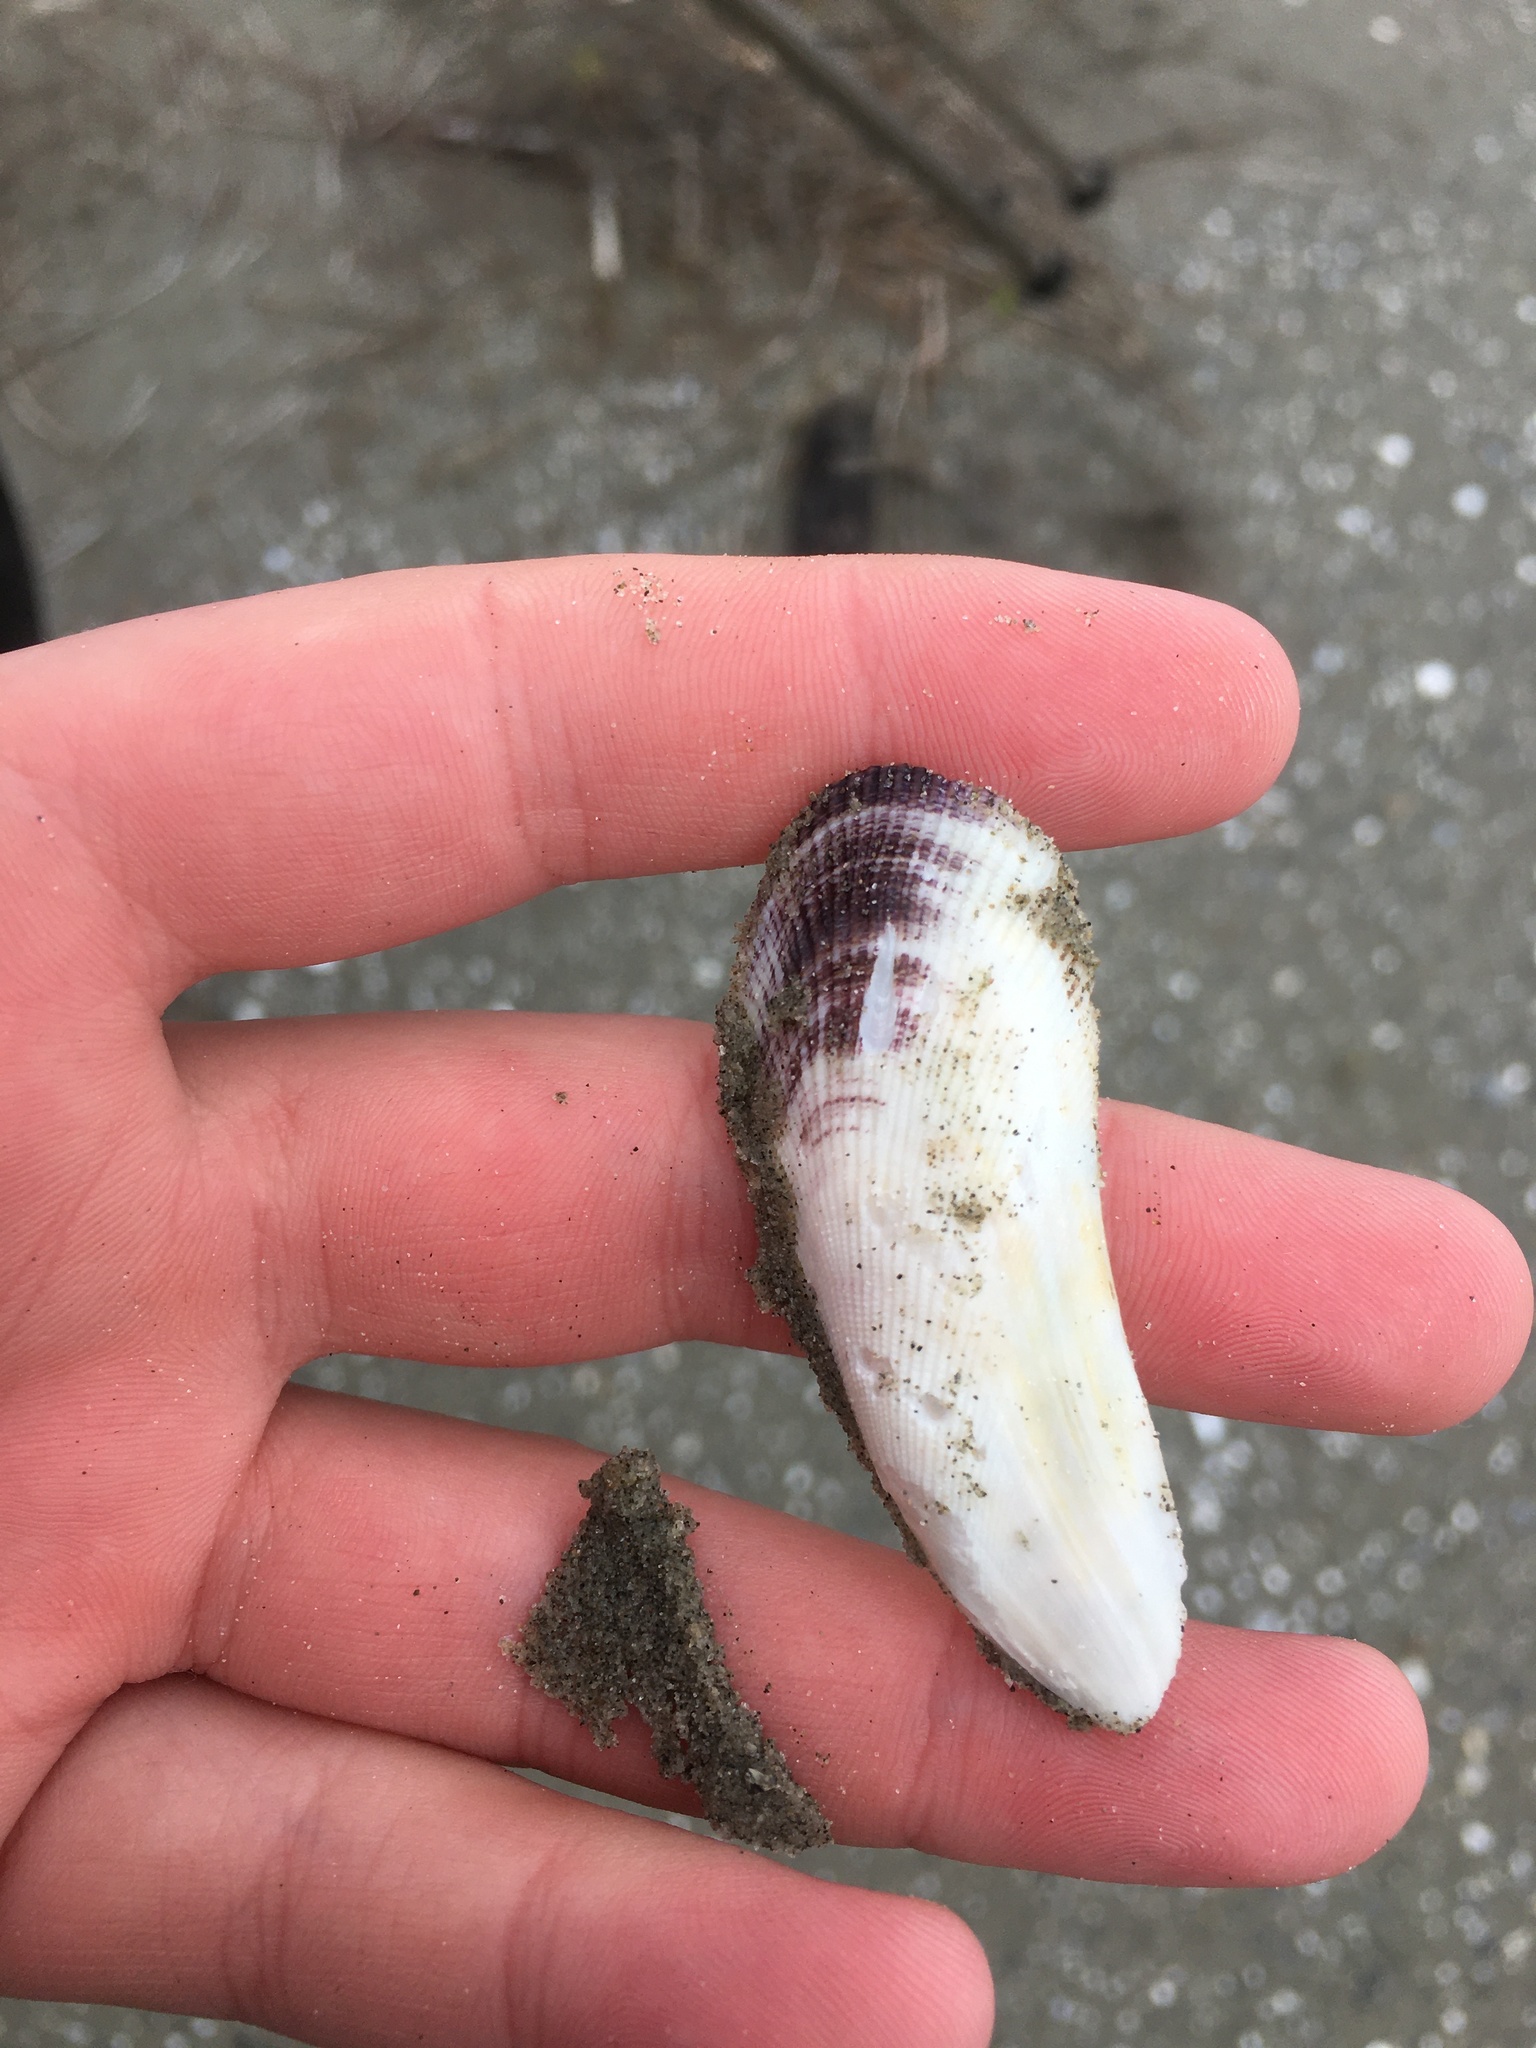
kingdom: Animalia
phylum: Mollusca
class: Bivalvia
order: Mytilida
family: Mytilidae
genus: Geukensia
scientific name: Geukensia granosissima
